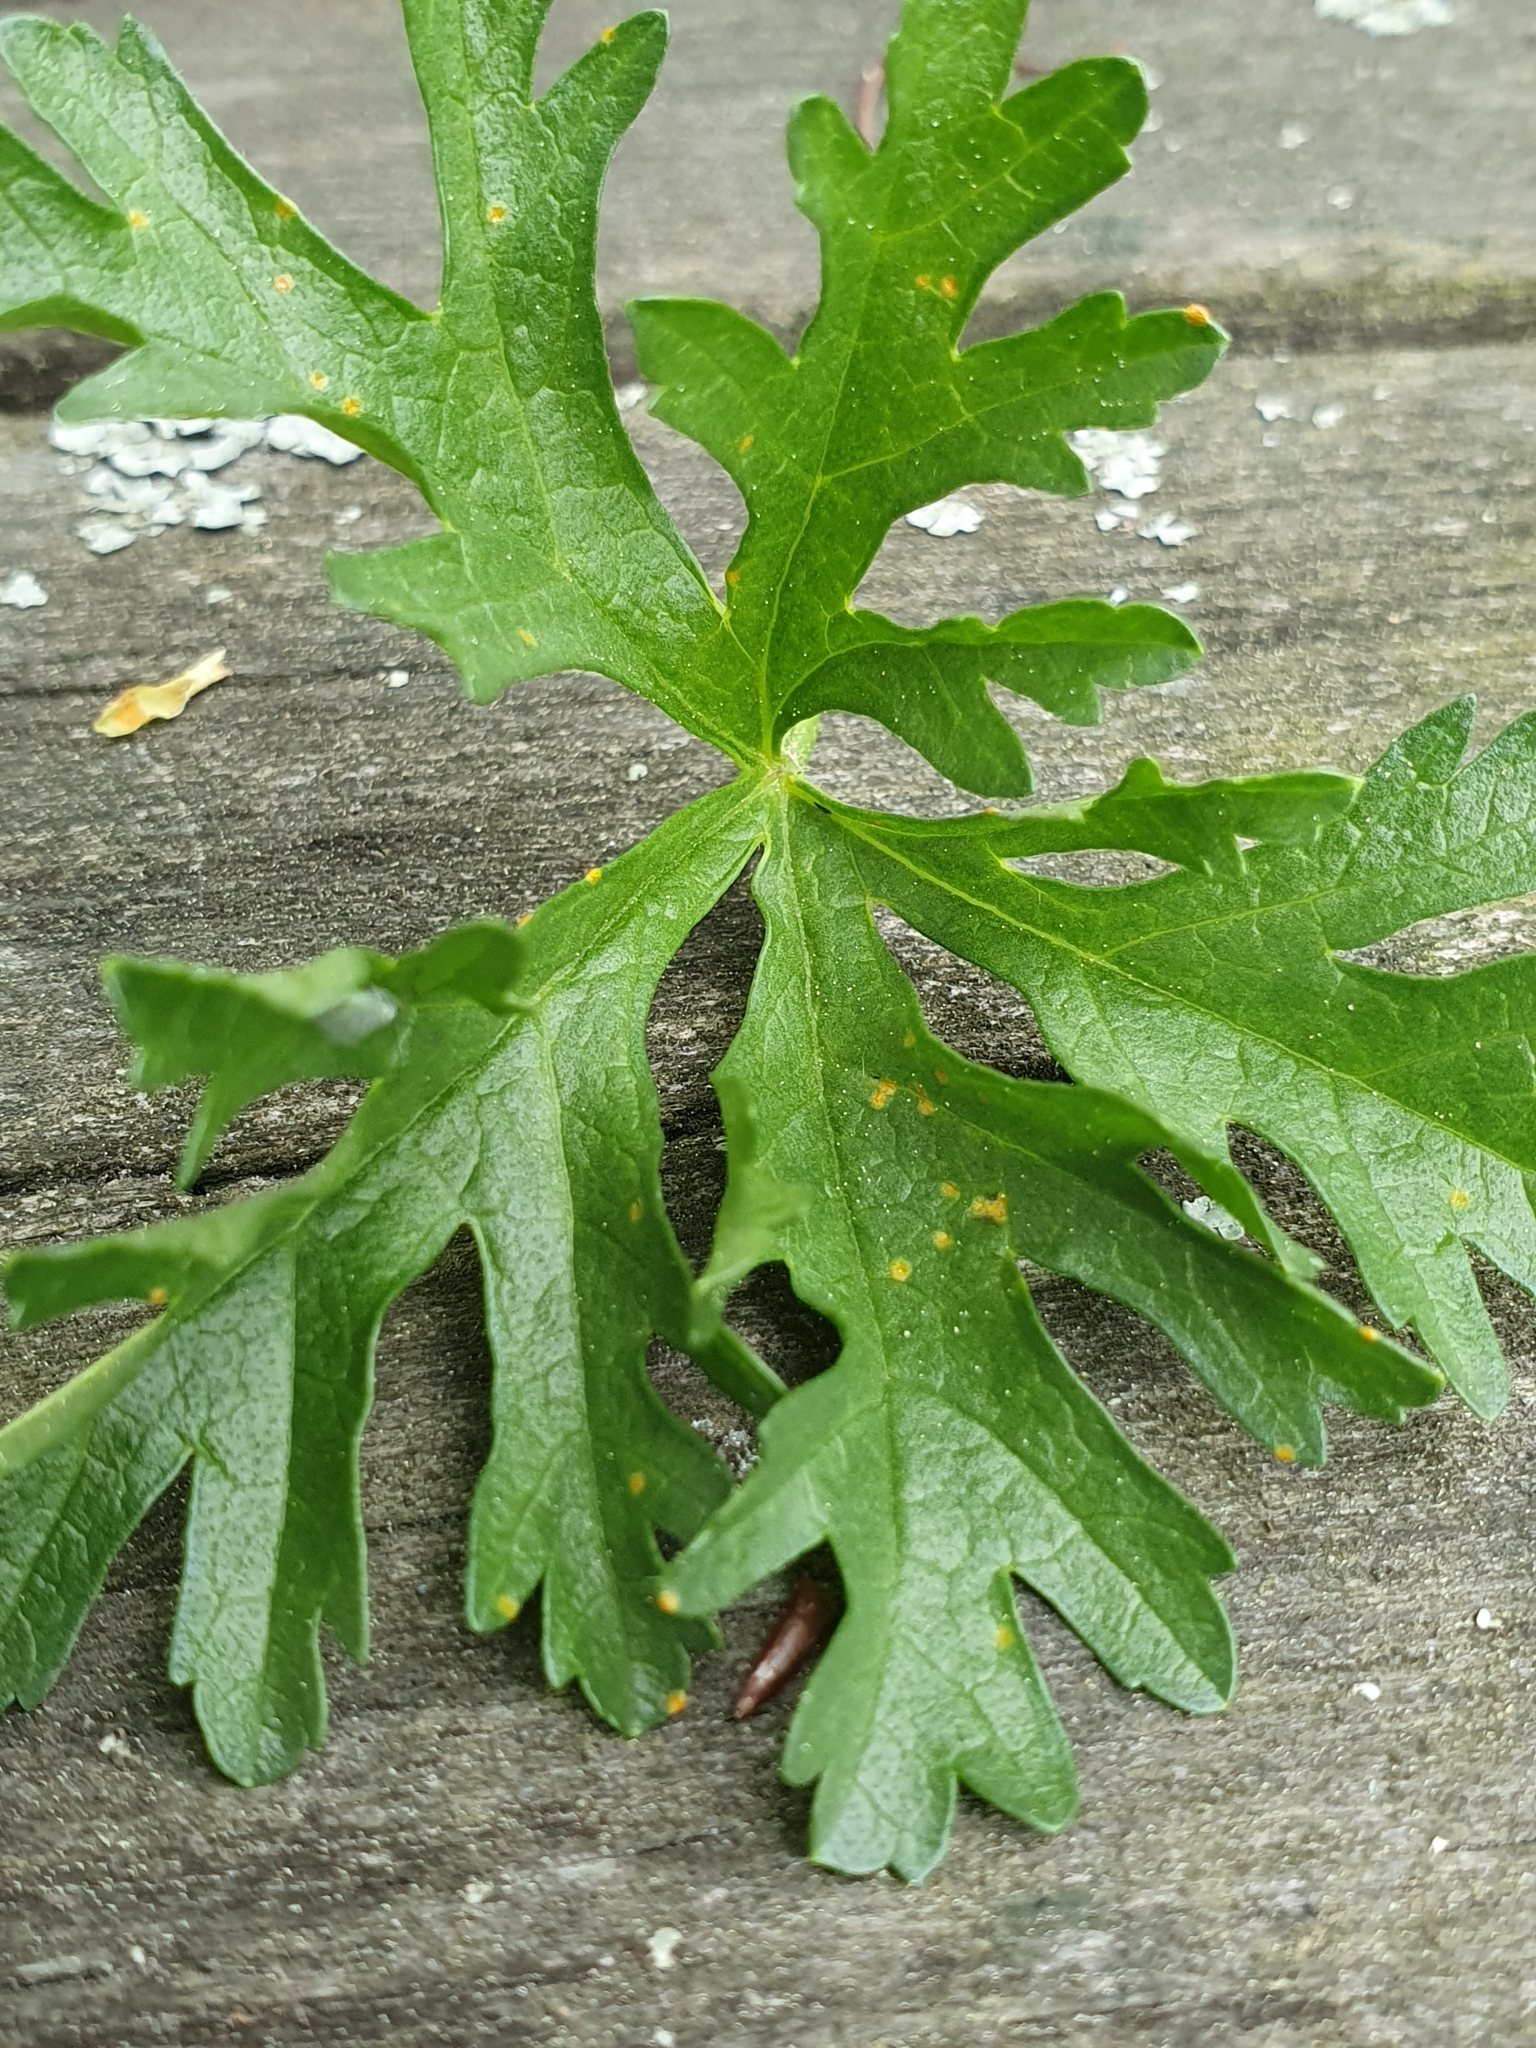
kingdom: Fungi
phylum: Basidiomycota
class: Pucciniomycetes
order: Pucciniales
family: Pucciniaceae
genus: Puccinia
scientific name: Puccinia malvacearum
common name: Hollyhock rust
